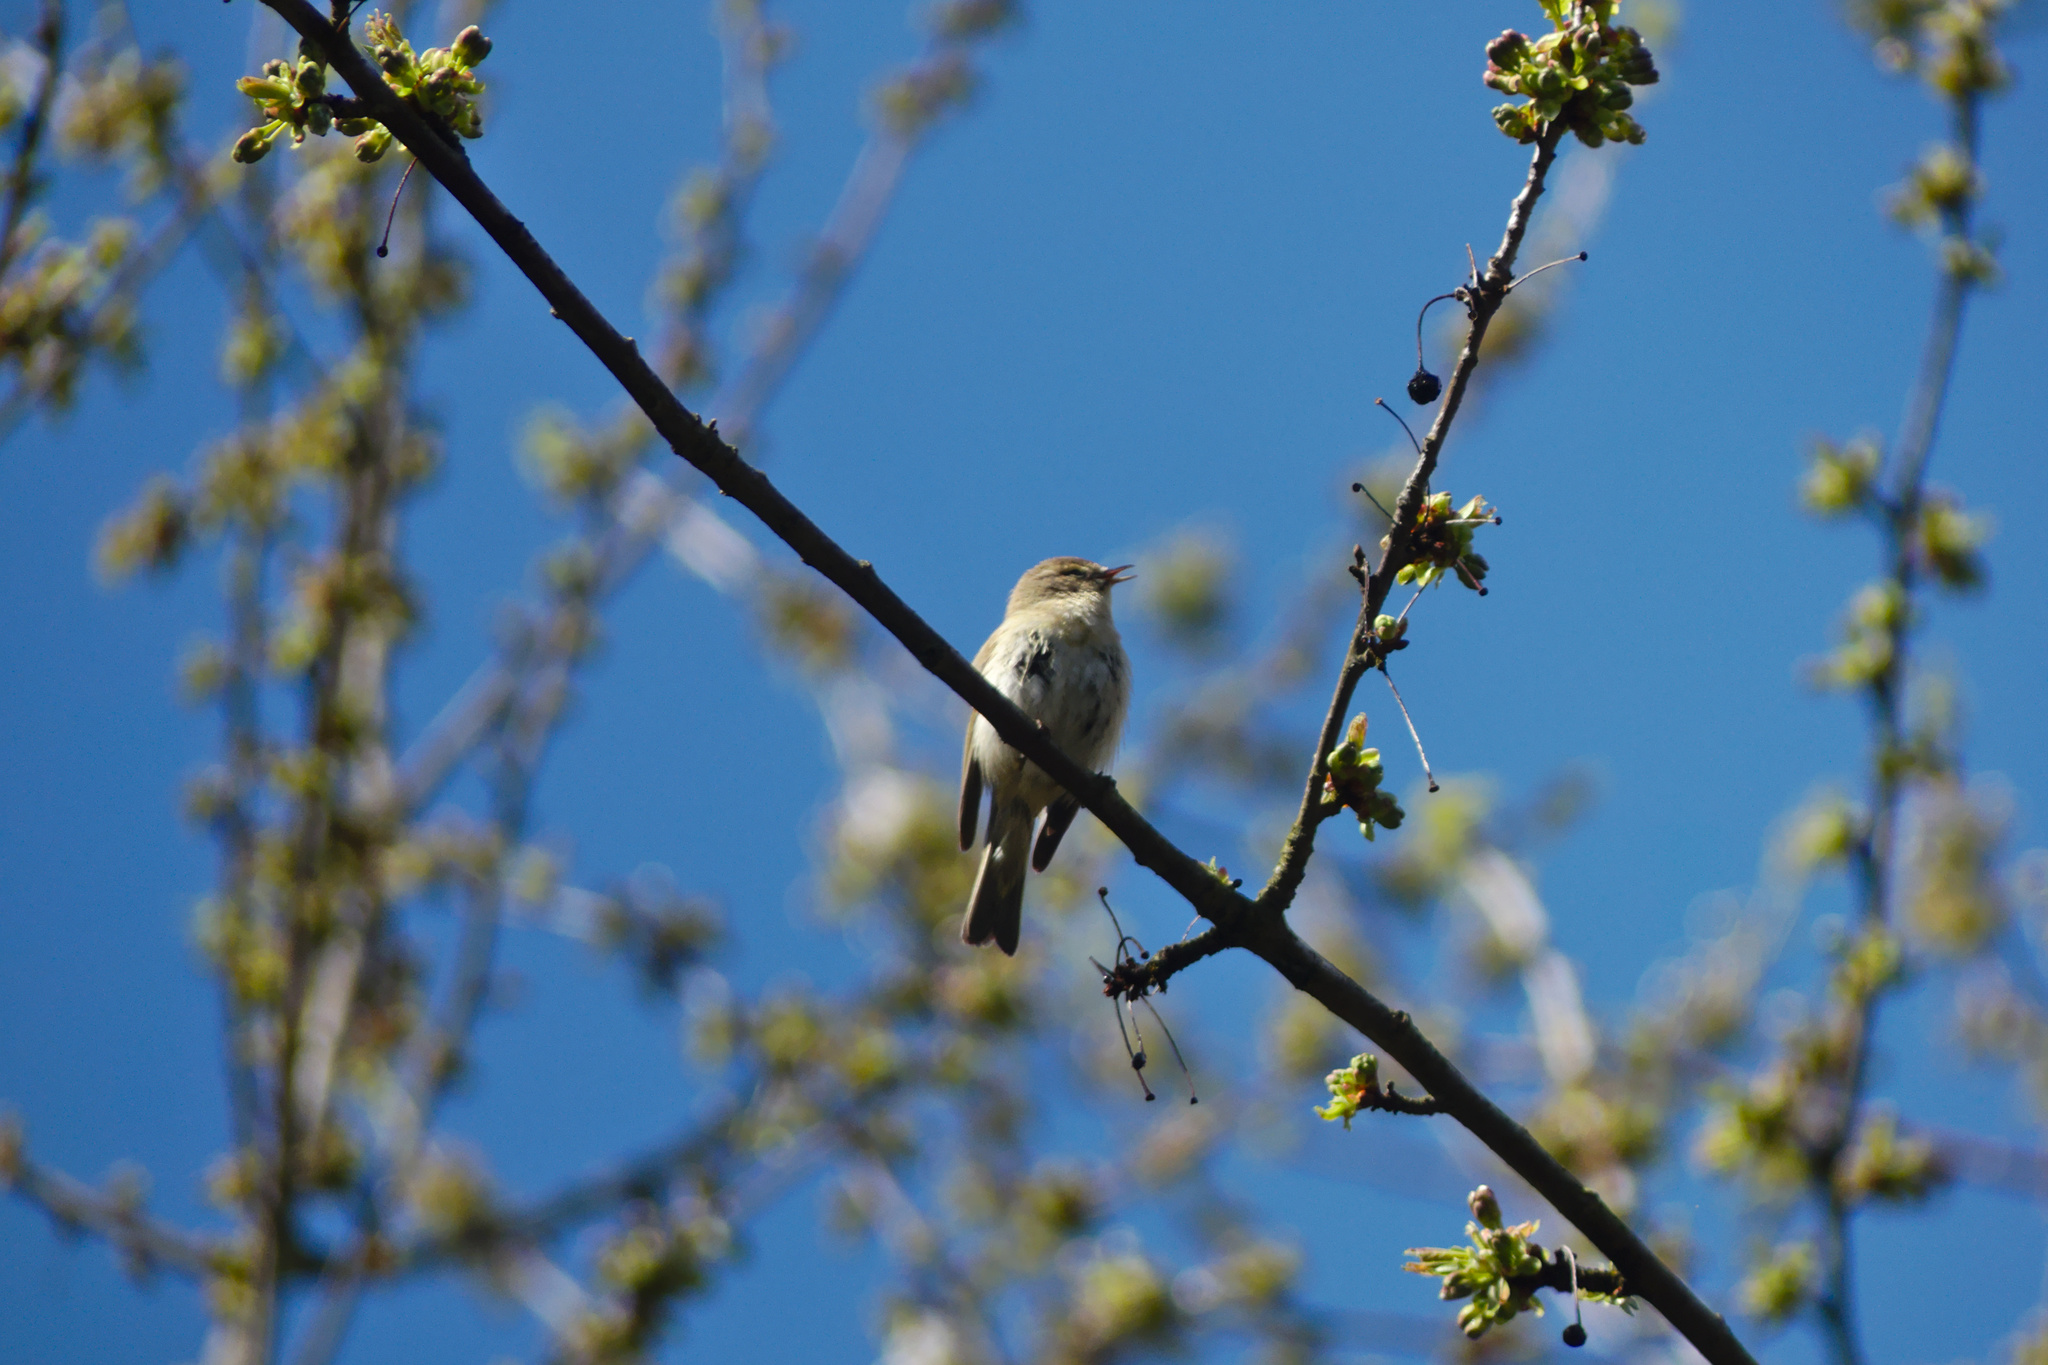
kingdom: Animalia
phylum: Chordata
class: Aves
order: Passeriformes
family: Phylloscopidae
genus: Phylloscopus
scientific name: Phylloscopus trochilus
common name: Willow warbler
